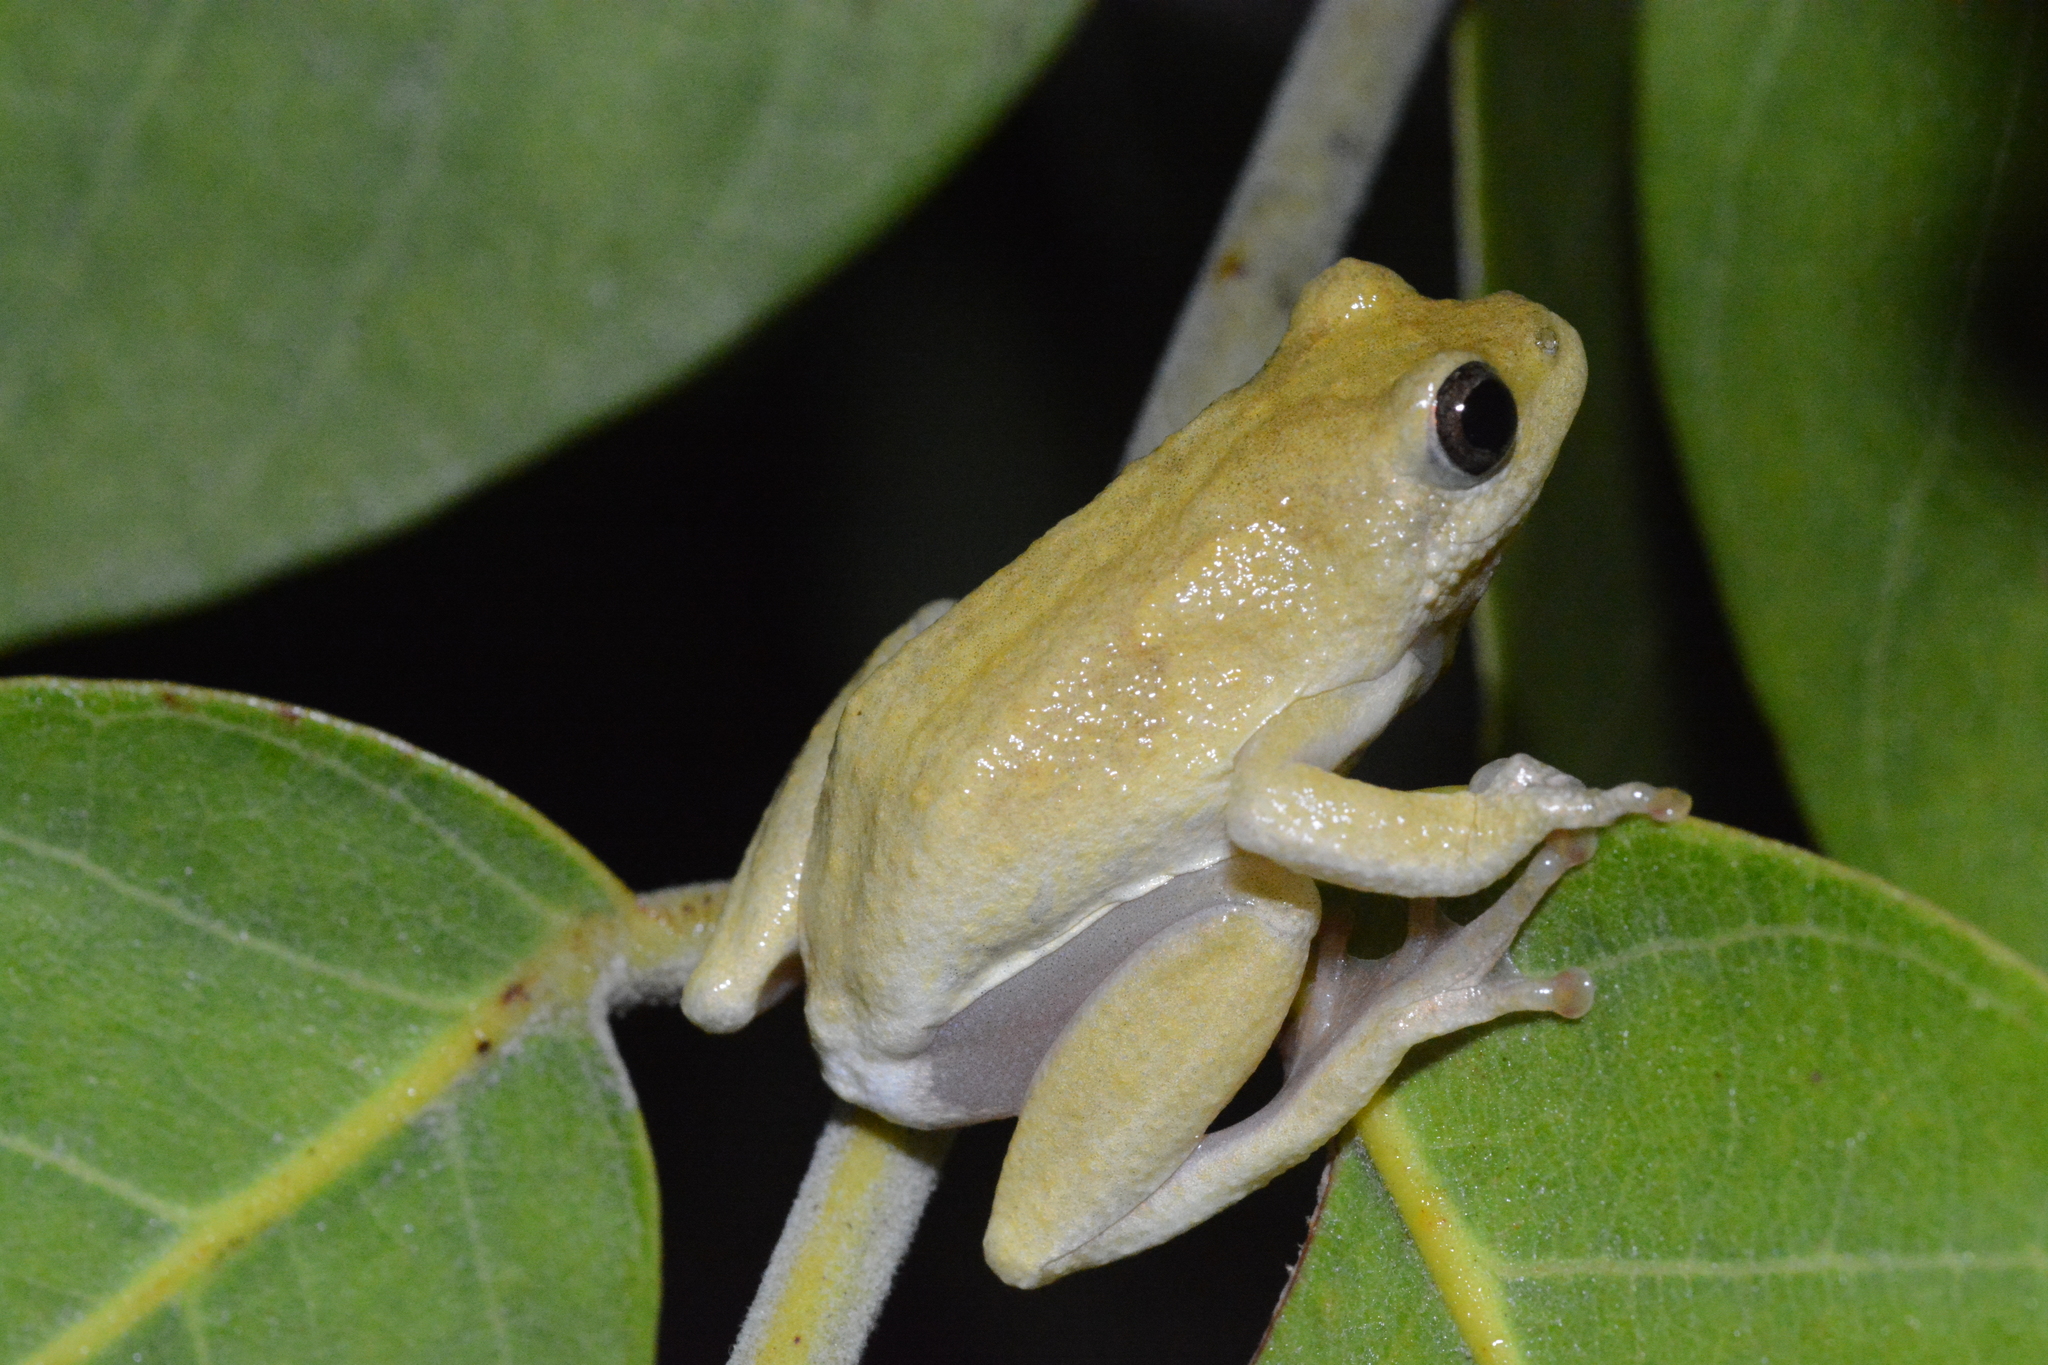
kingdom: Animalia
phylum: Chordata
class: Amphibia
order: Anura
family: Hyperoliidae
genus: Hyperolius
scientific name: Hyperolius viridiflavus
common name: Common reed frog
